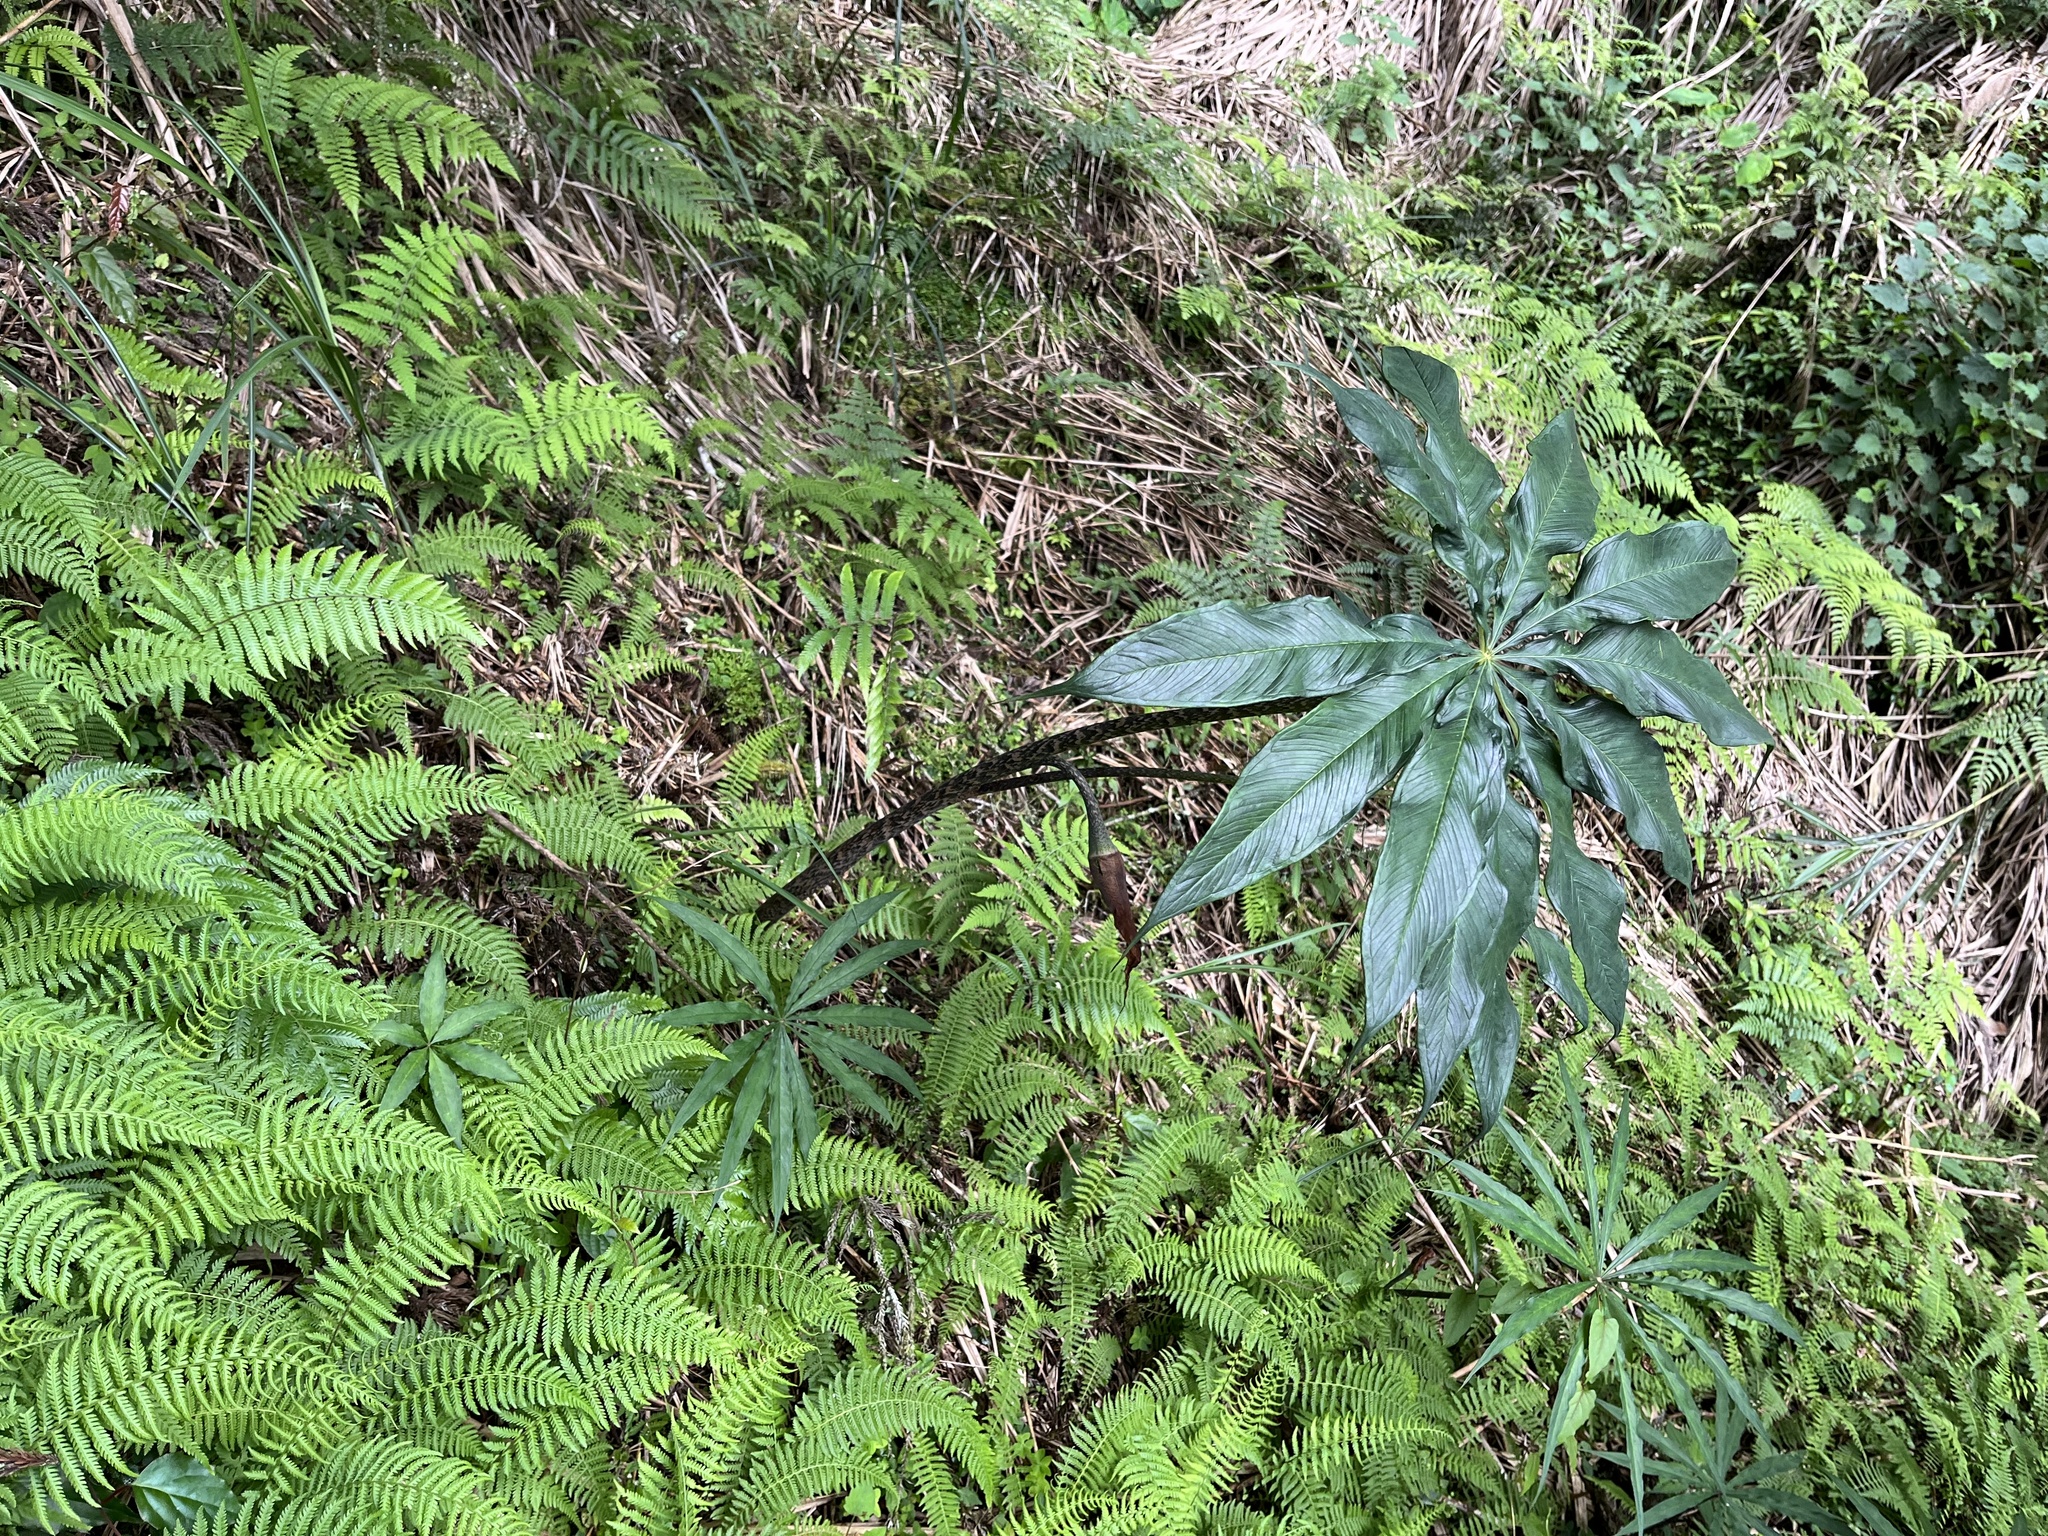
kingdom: Plantae
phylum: Tracheophyta
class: Liliopsida
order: Alismatales
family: Araceae
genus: Arisaema
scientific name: Arisaema taiwanense
